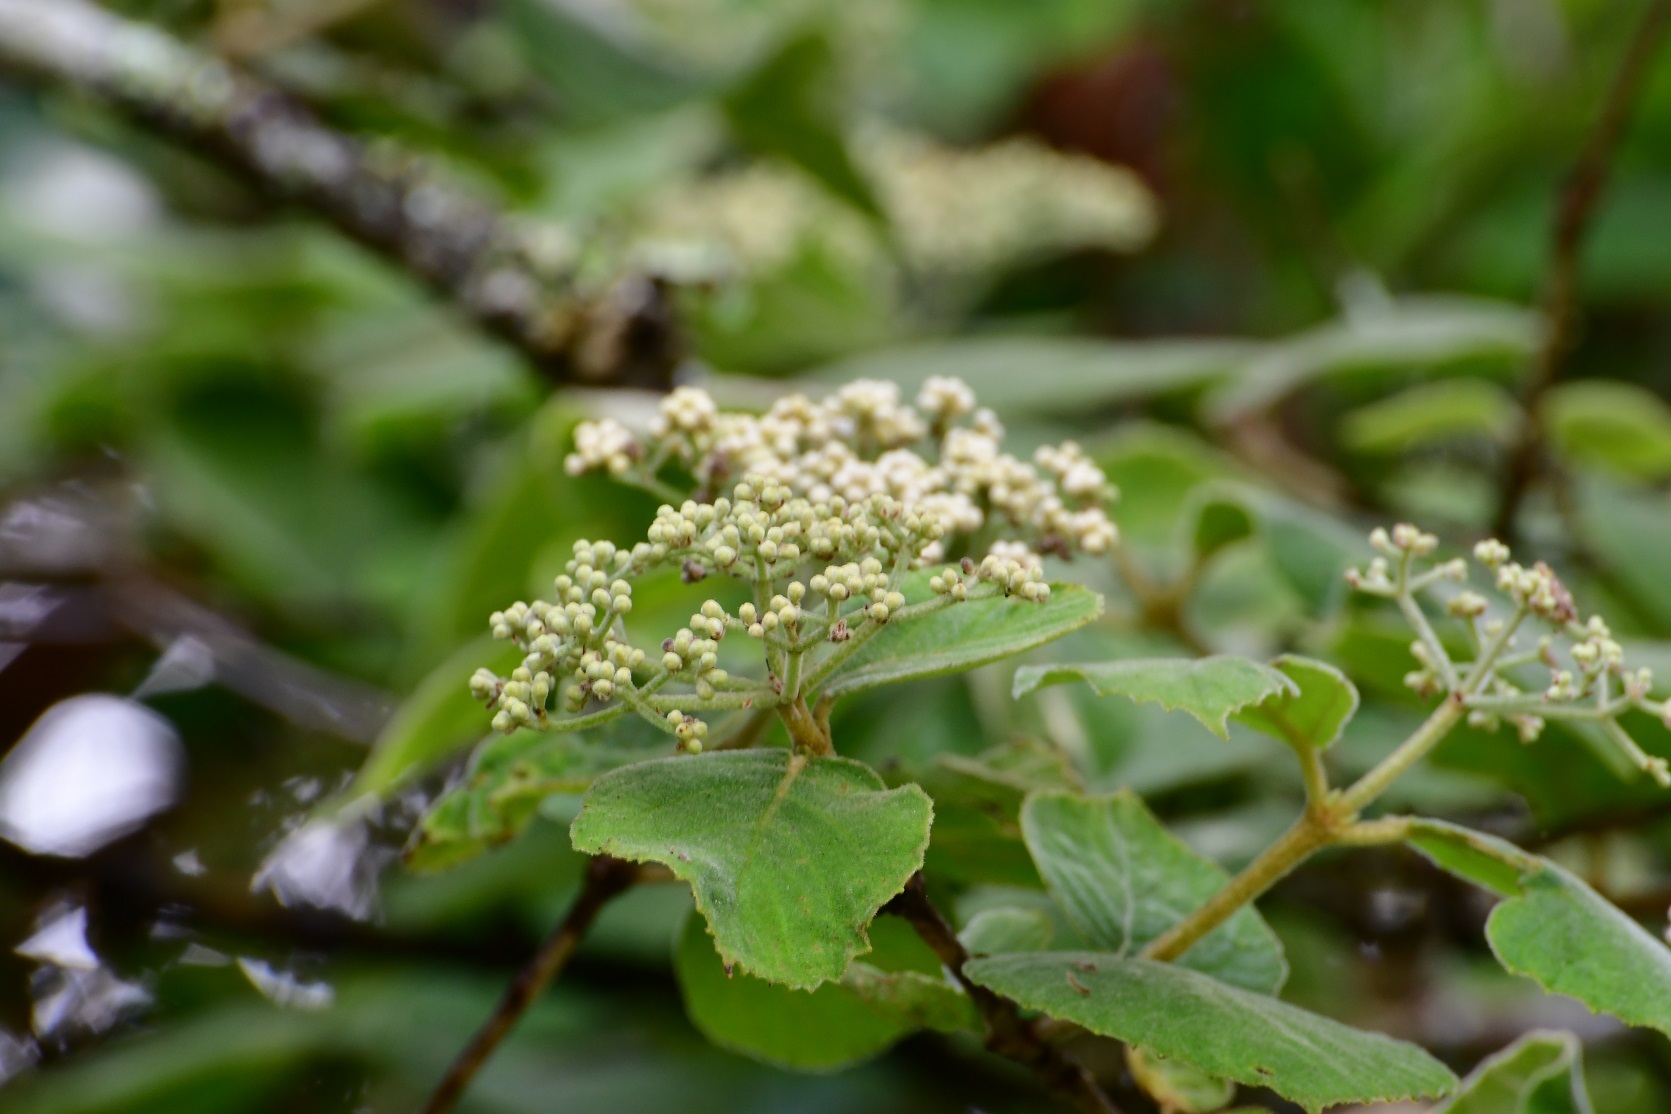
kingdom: Plantae
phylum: Tracheophyta
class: Magnoliopsida
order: Dipsacales
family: Viburnaceae
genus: Viburnum
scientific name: Viburnum jucundum
